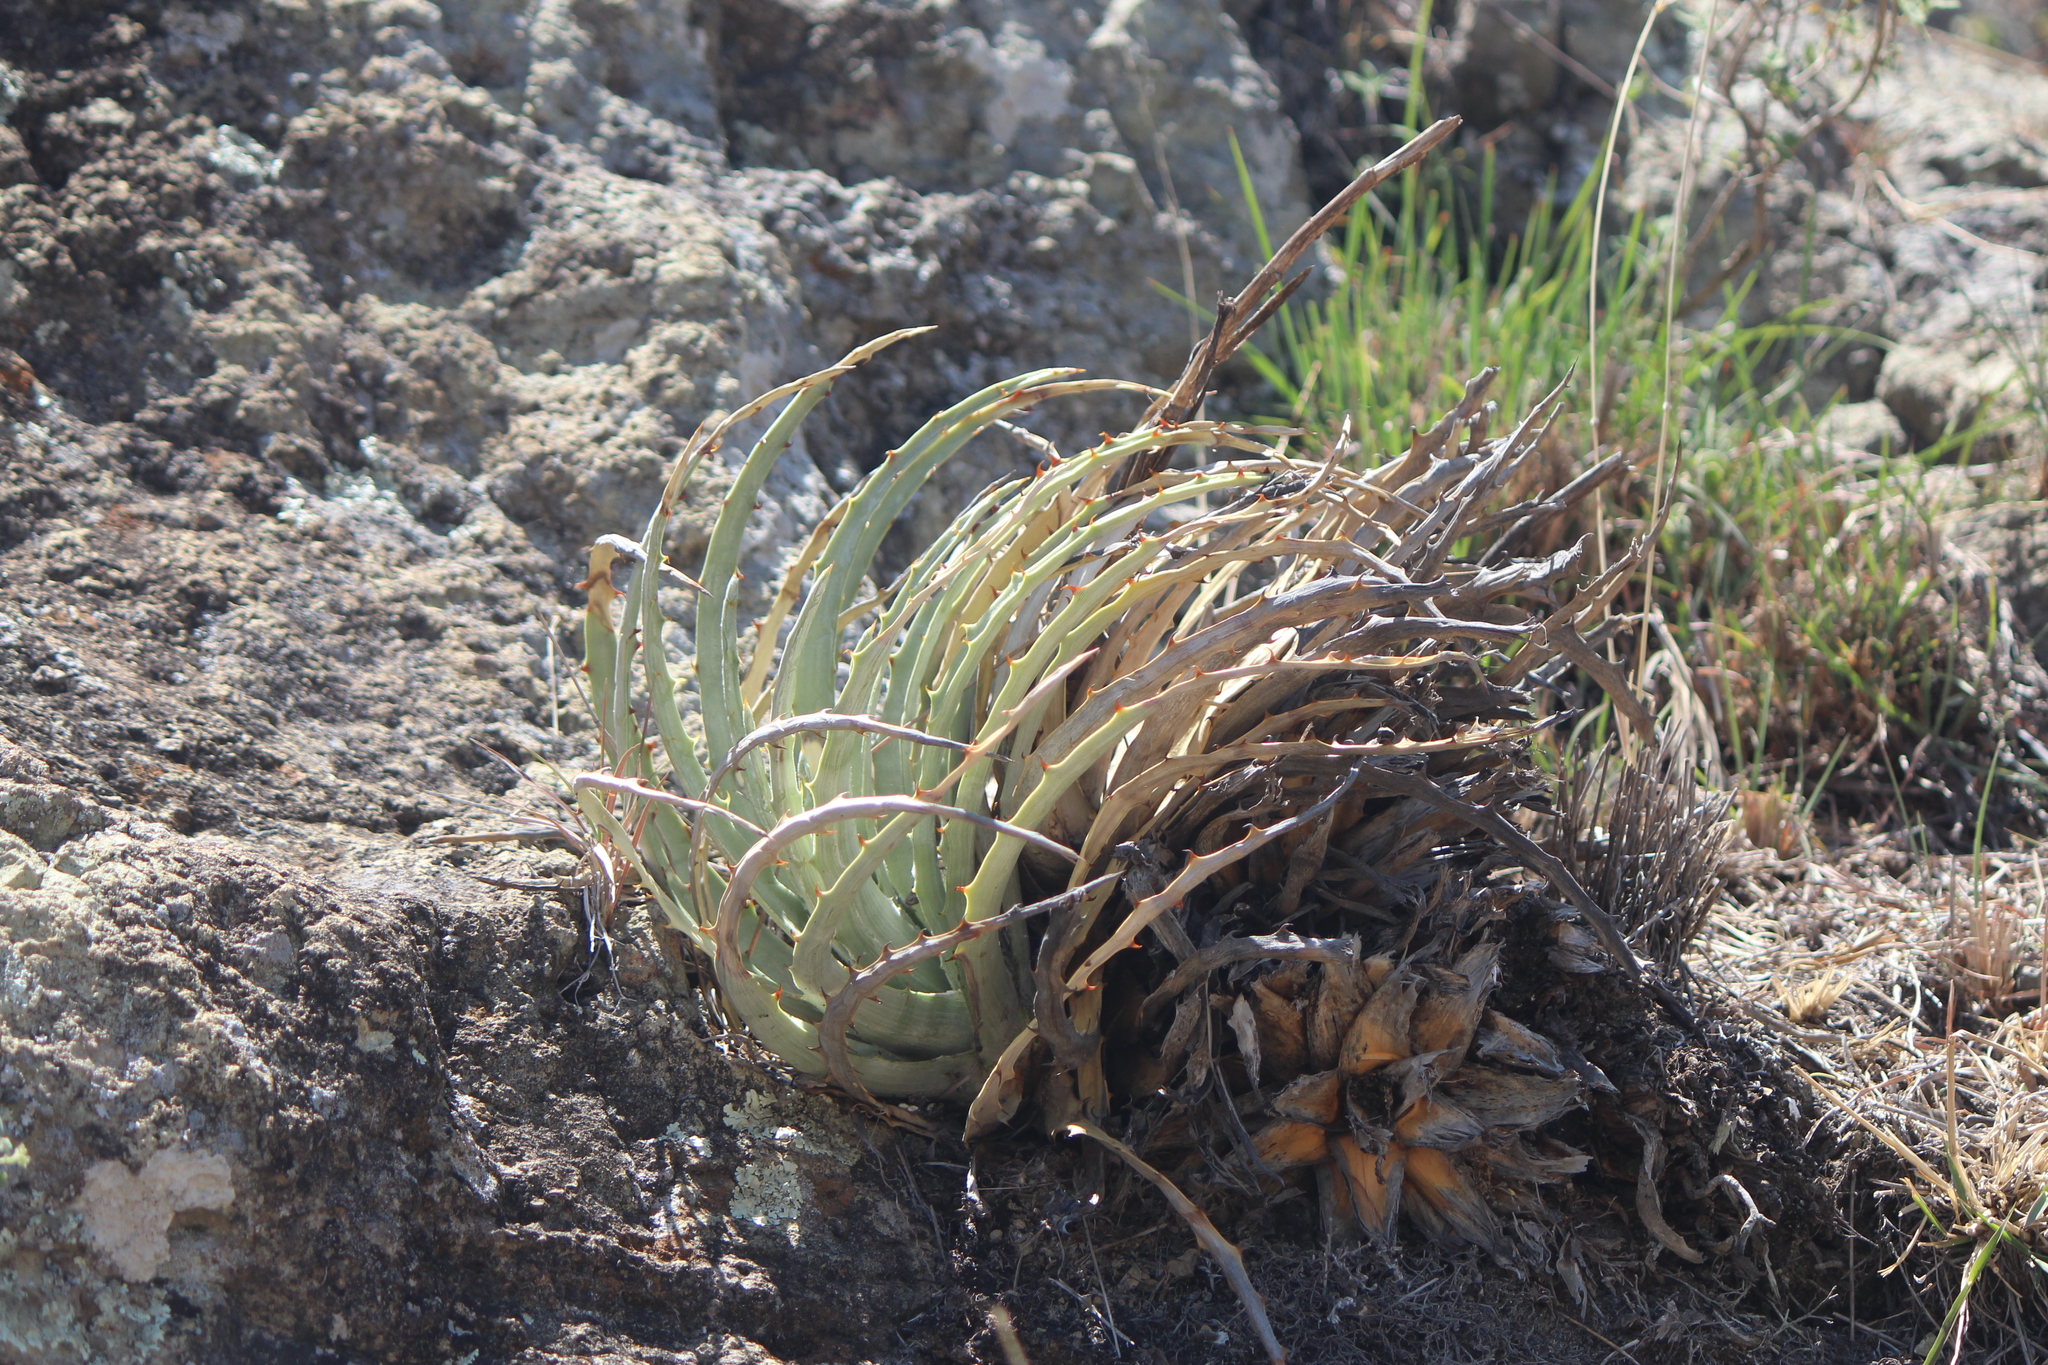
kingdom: Plantae
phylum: Tracheophyta
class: Liliopsida
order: Poales
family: Bromeliaceae
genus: Hechtia
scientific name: Hechtia glomerata
